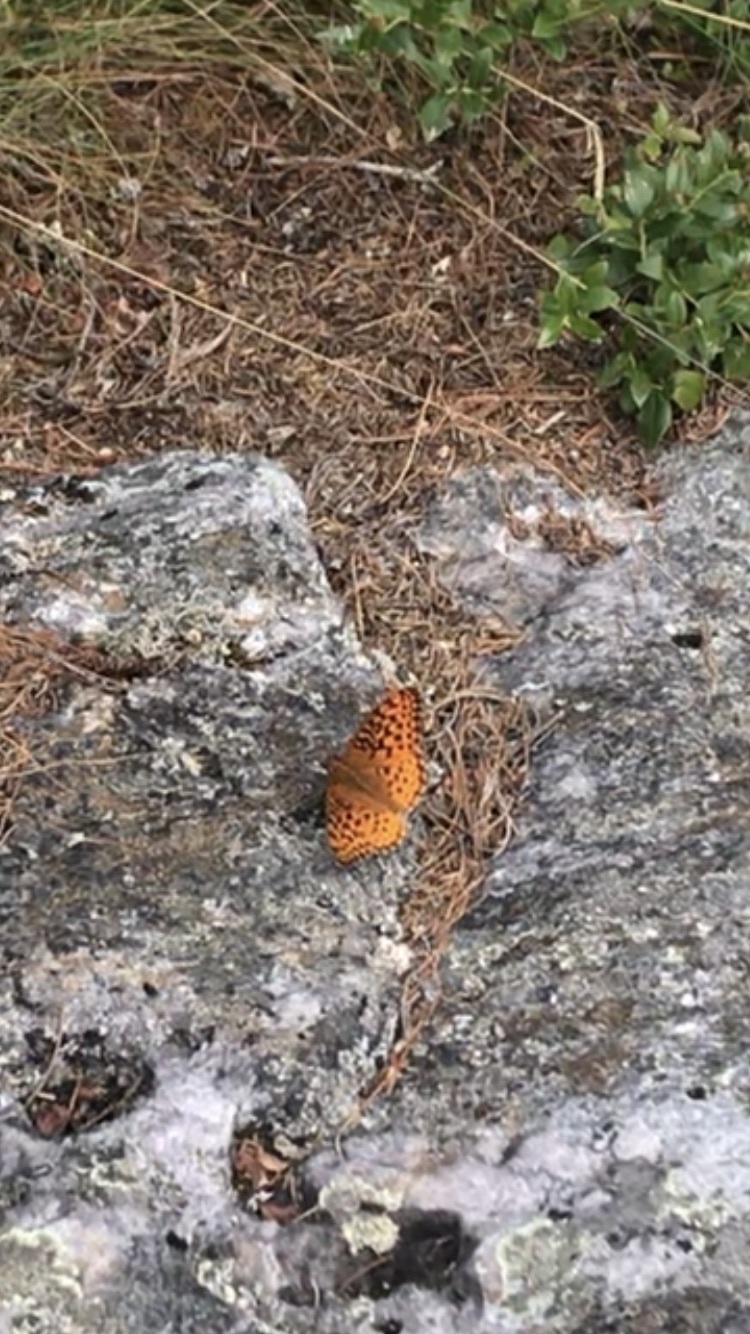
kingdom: Animalia
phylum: Arthropoda
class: Insecta
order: Lepidoptera
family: Nymphalidae
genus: Speyeria
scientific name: Speyeria aphrodite
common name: Aphrodite friitllary
